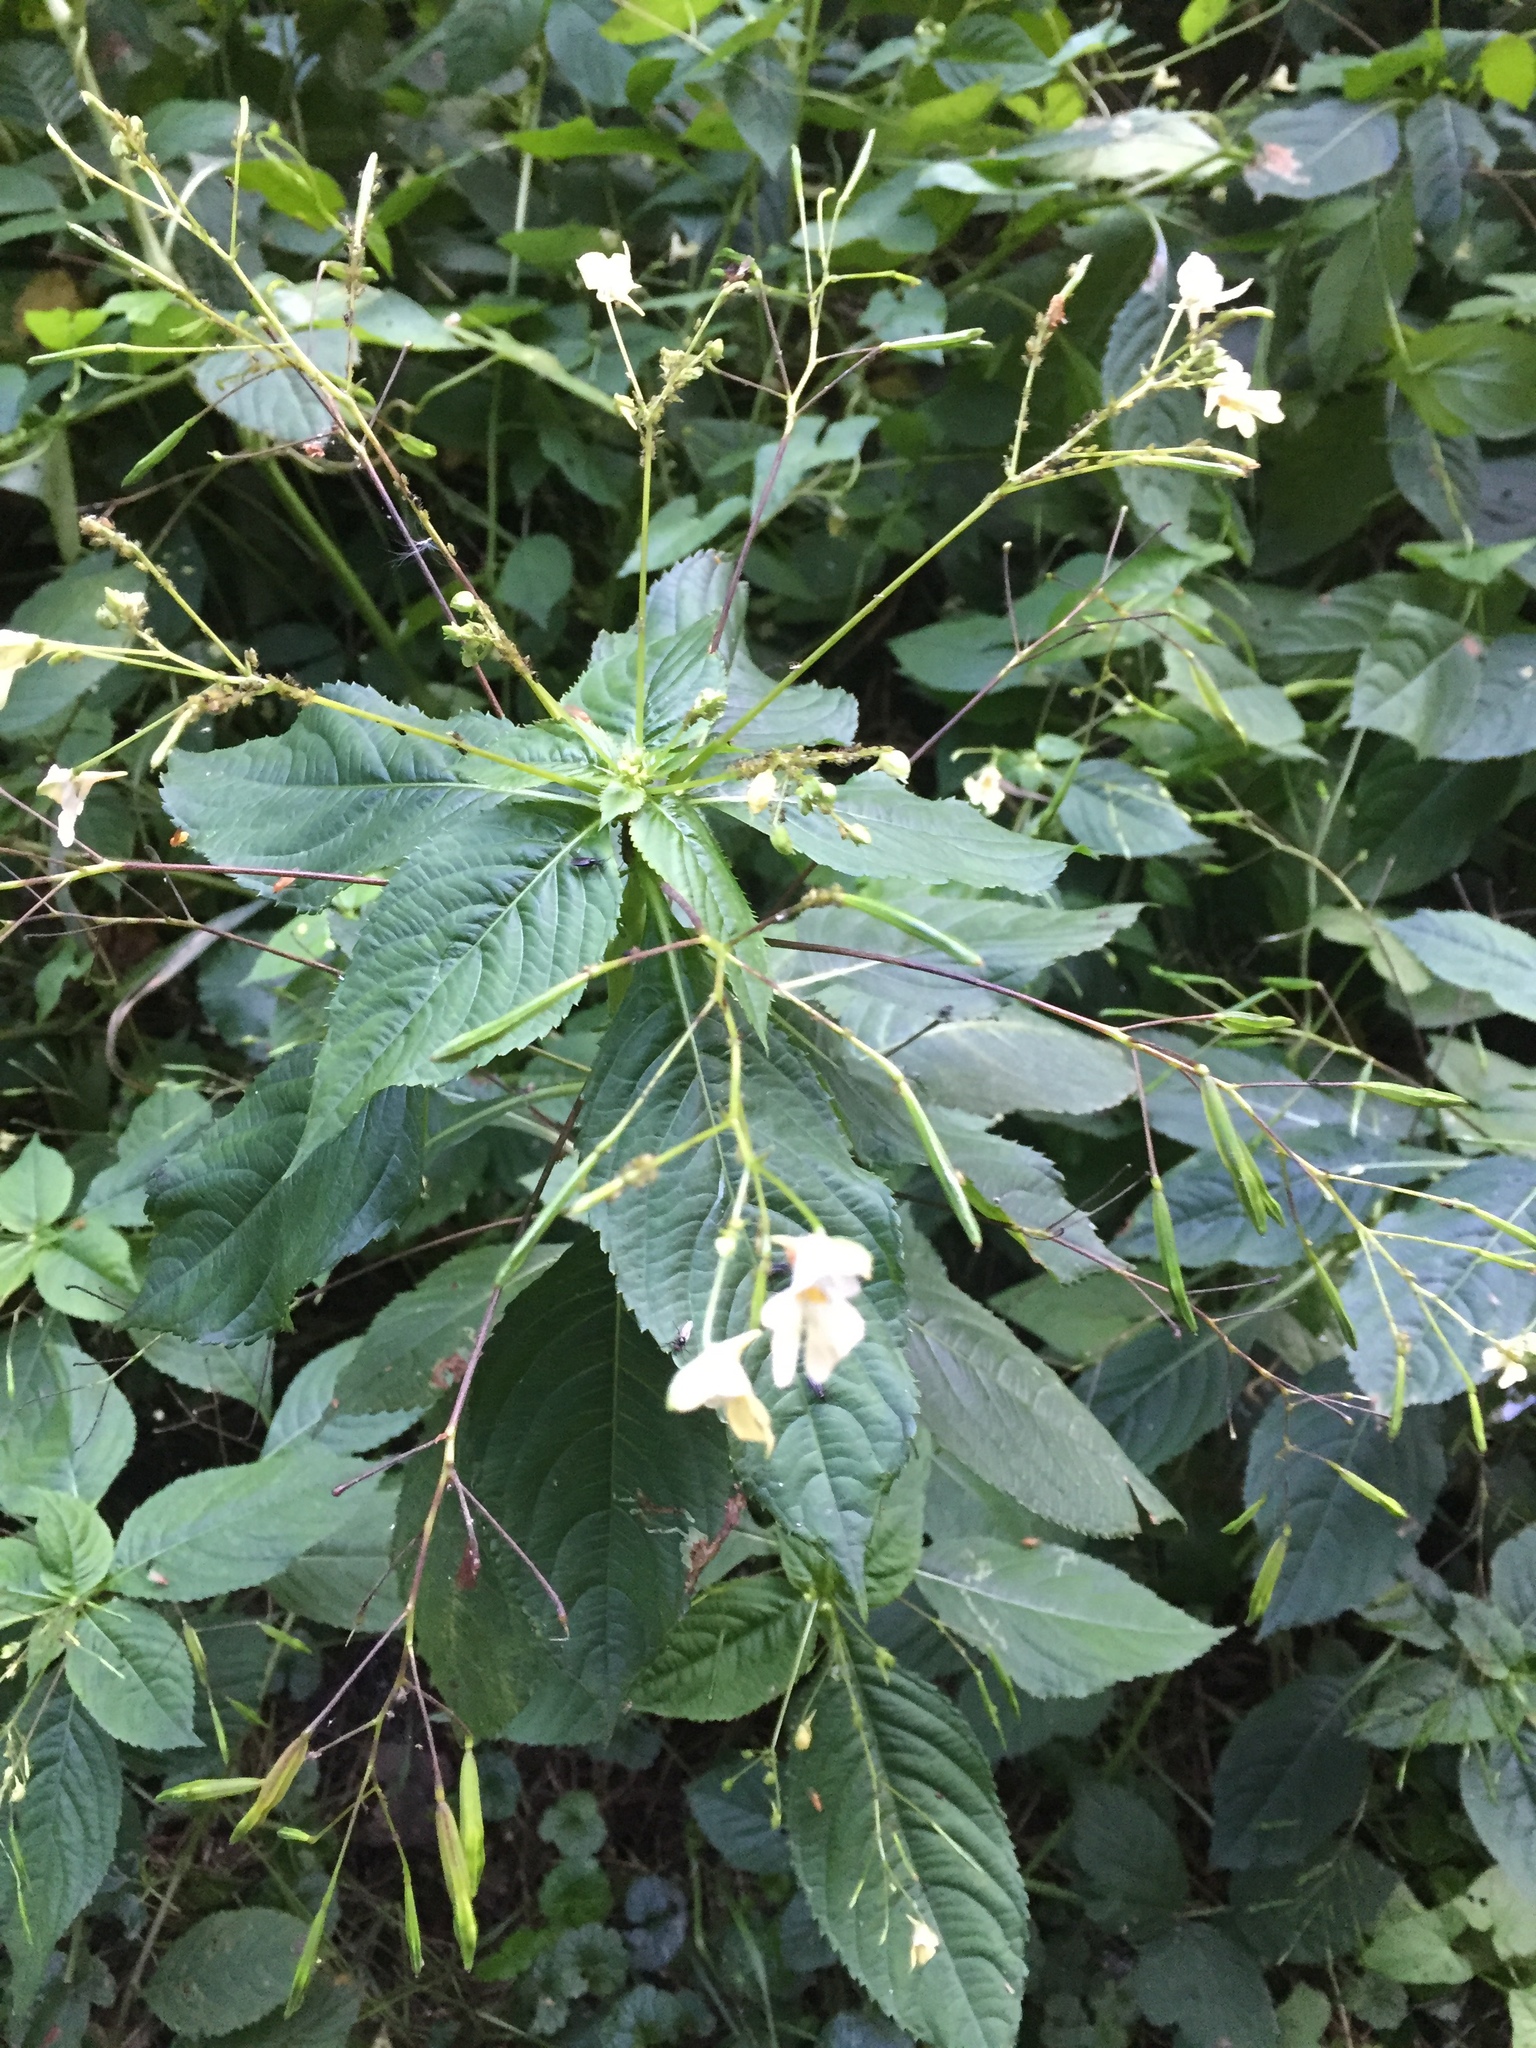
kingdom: Plantae
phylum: Tracheophyta
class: Magnoliopsida
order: Ericales
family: Balsaminaceae
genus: Impatiens
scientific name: Impatiens parviflora
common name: Small balsam
